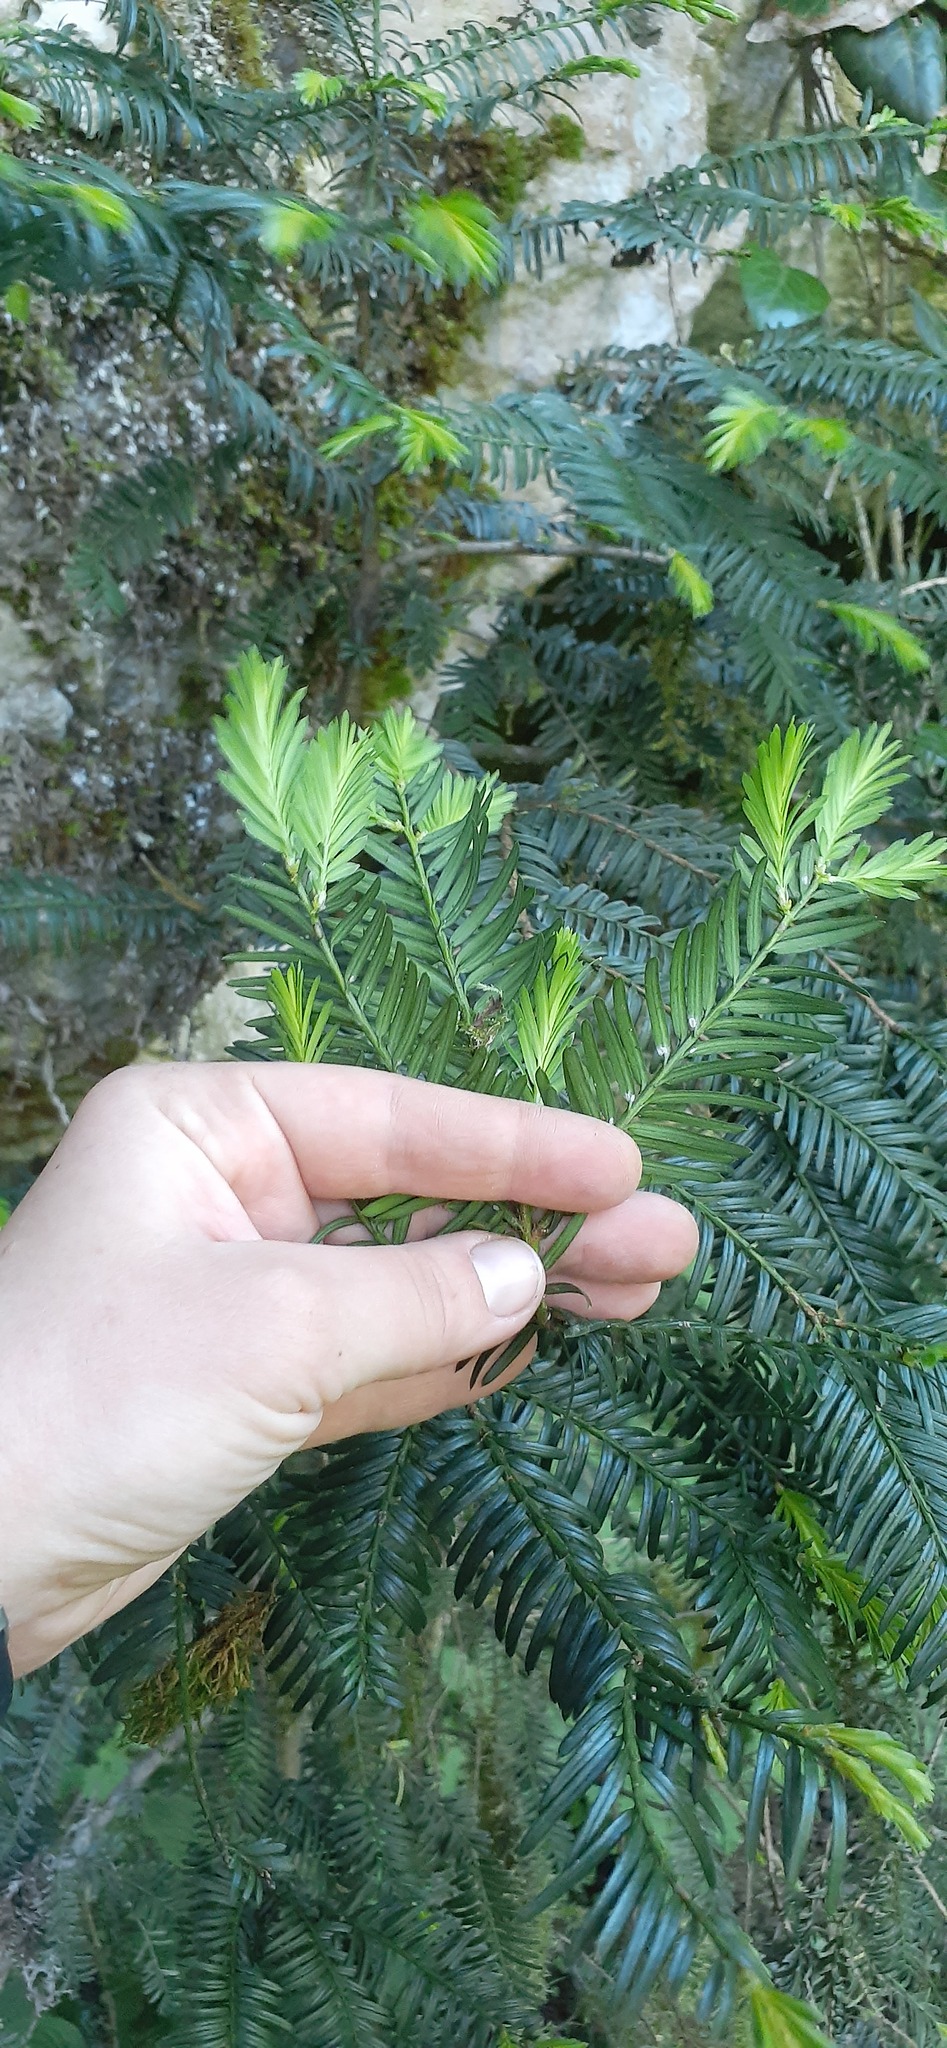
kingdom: Plantae
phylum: Tracheophyta
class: Pinopsida
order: Pinales
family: Taxaceae
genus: Taxus
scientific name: Taxus baccata
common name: Yew
